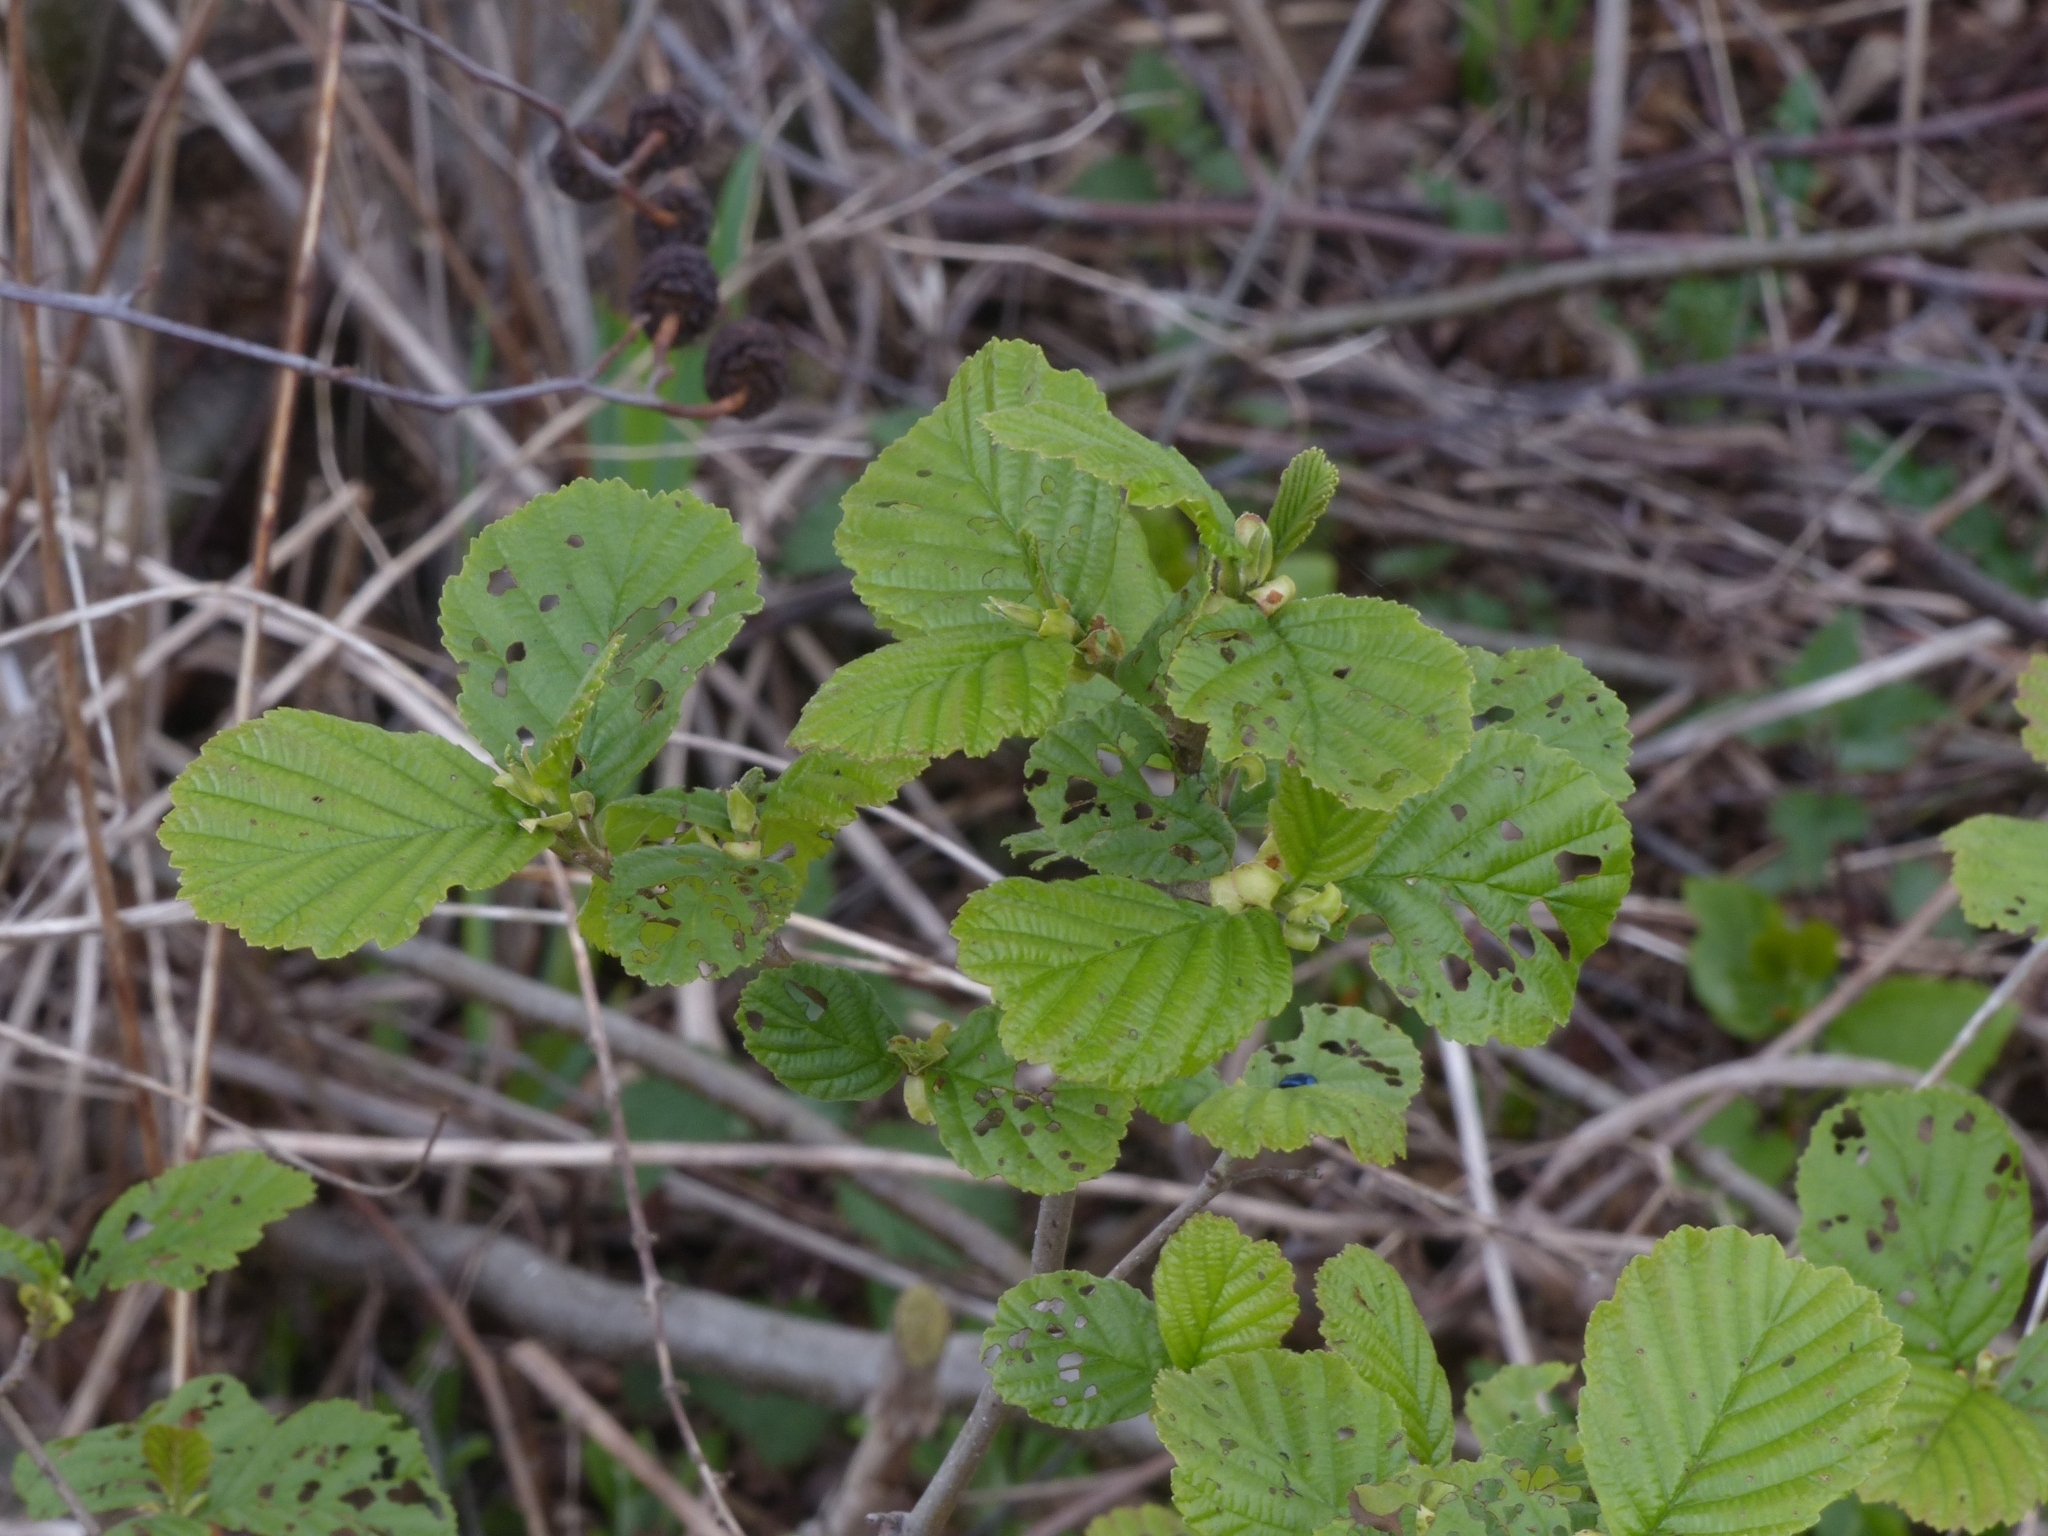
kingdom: Plantae
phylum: Tracheophyta
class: Magnoliopsida
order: Fagales
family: Betulaceae
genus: Alnus
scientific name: Alnus glutinosa
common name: Black alder
